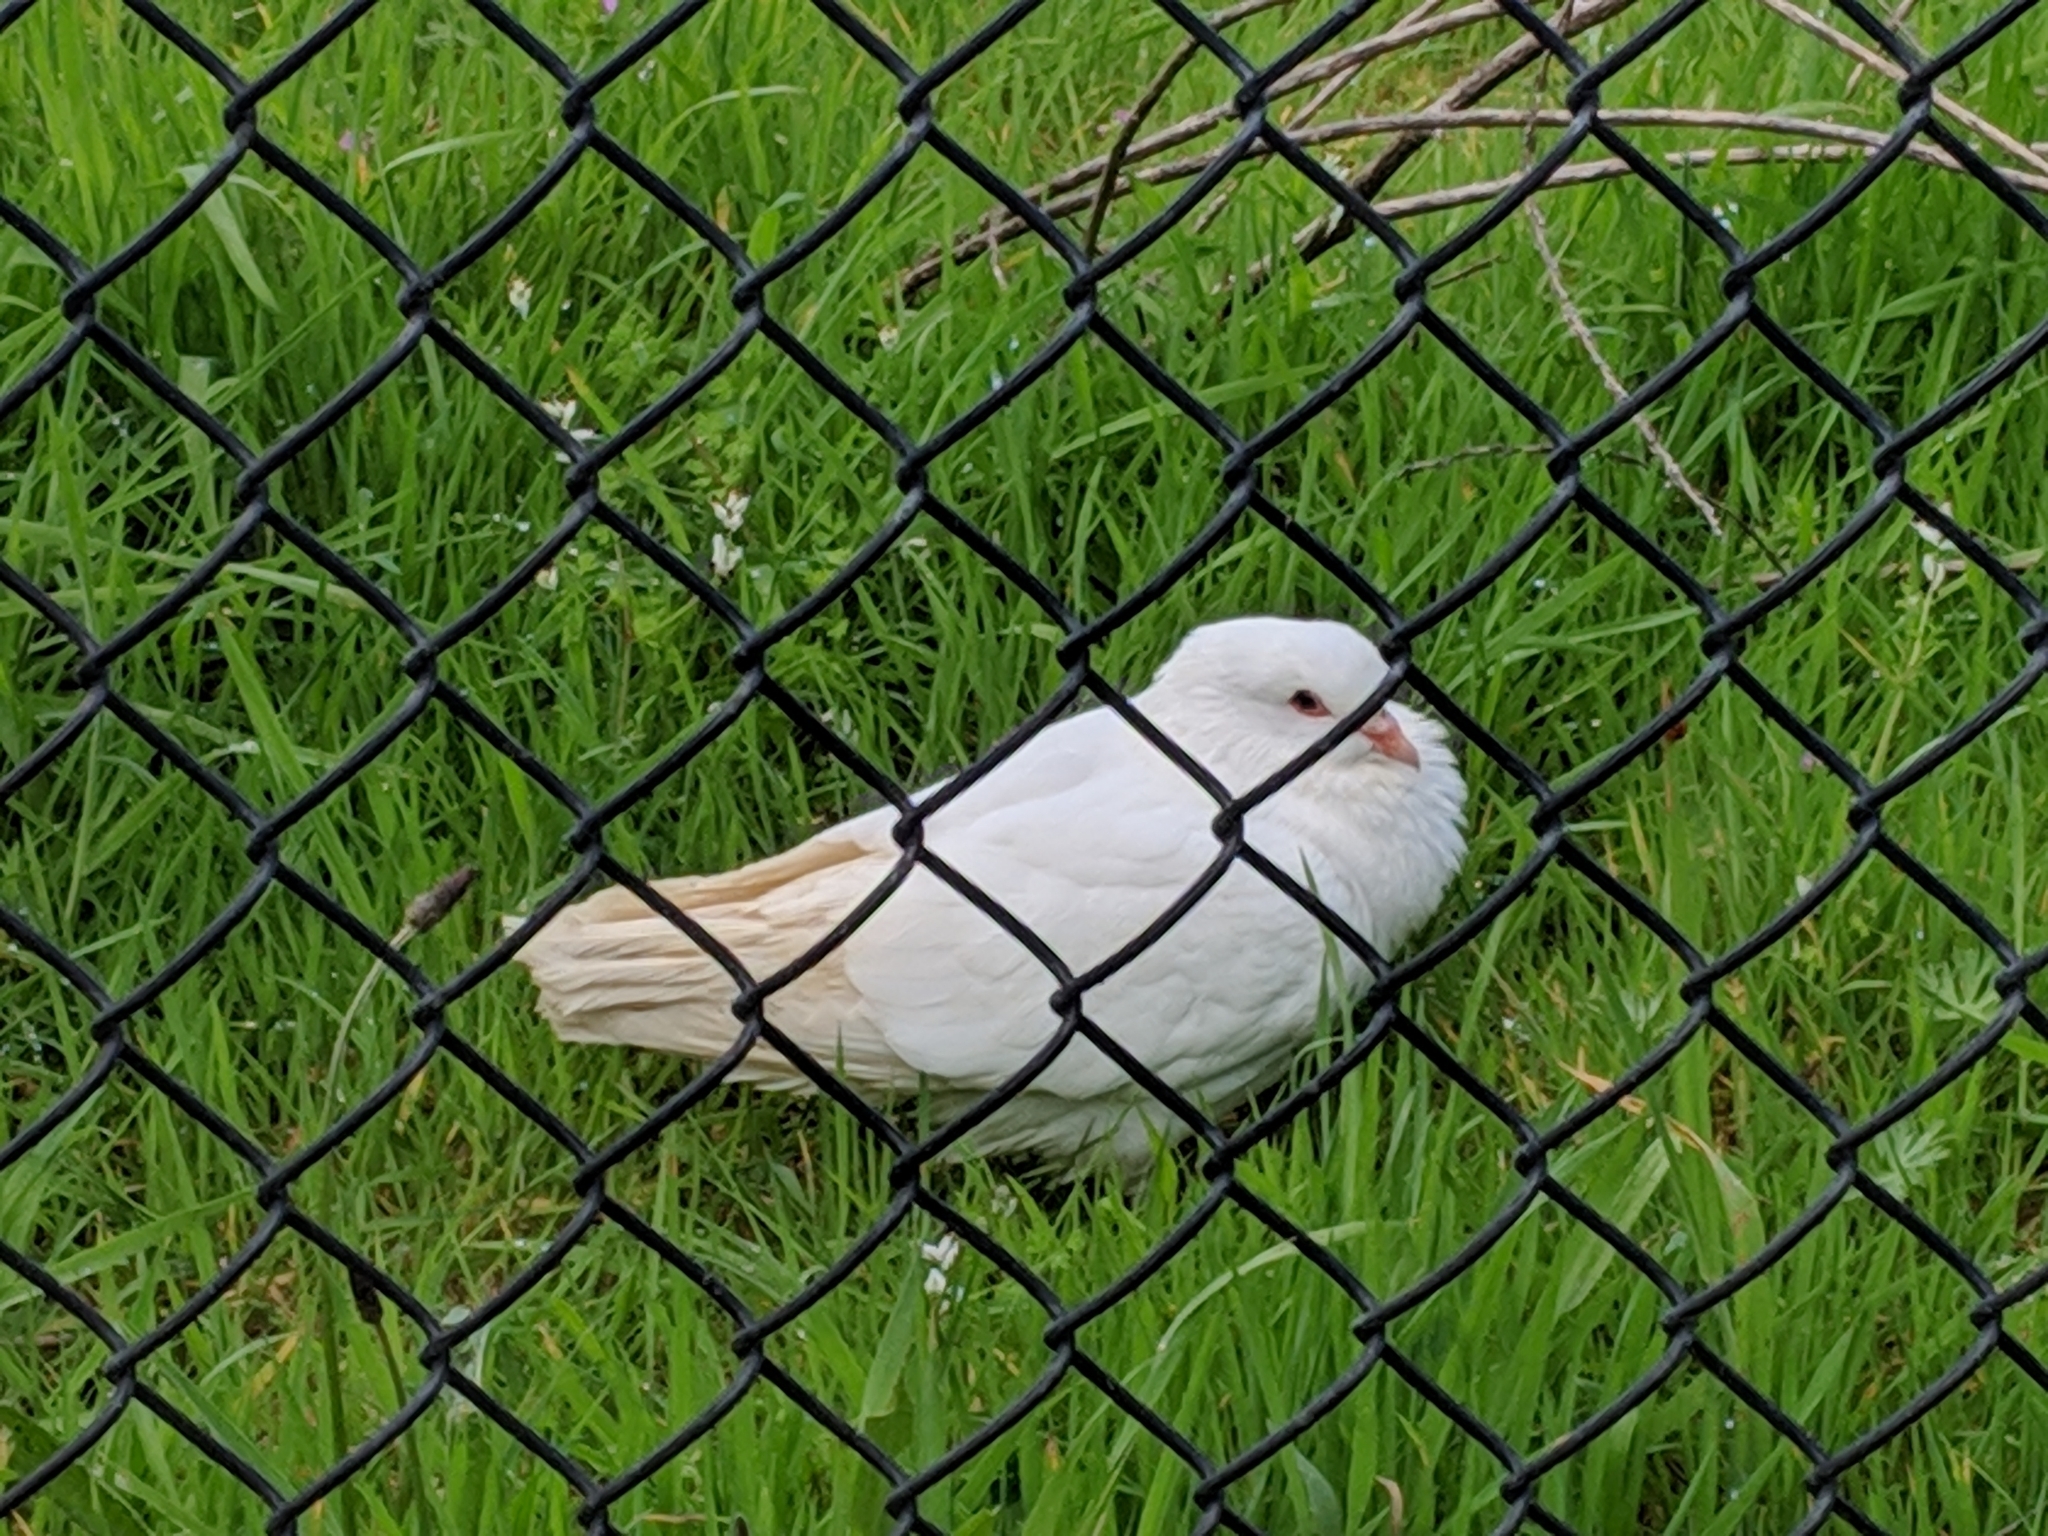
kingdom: Animalia
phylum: Chordata
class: Aves
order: Columbiformes
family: Columbidae
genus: Columba
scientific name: Columba livia
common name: Rock pigeon
